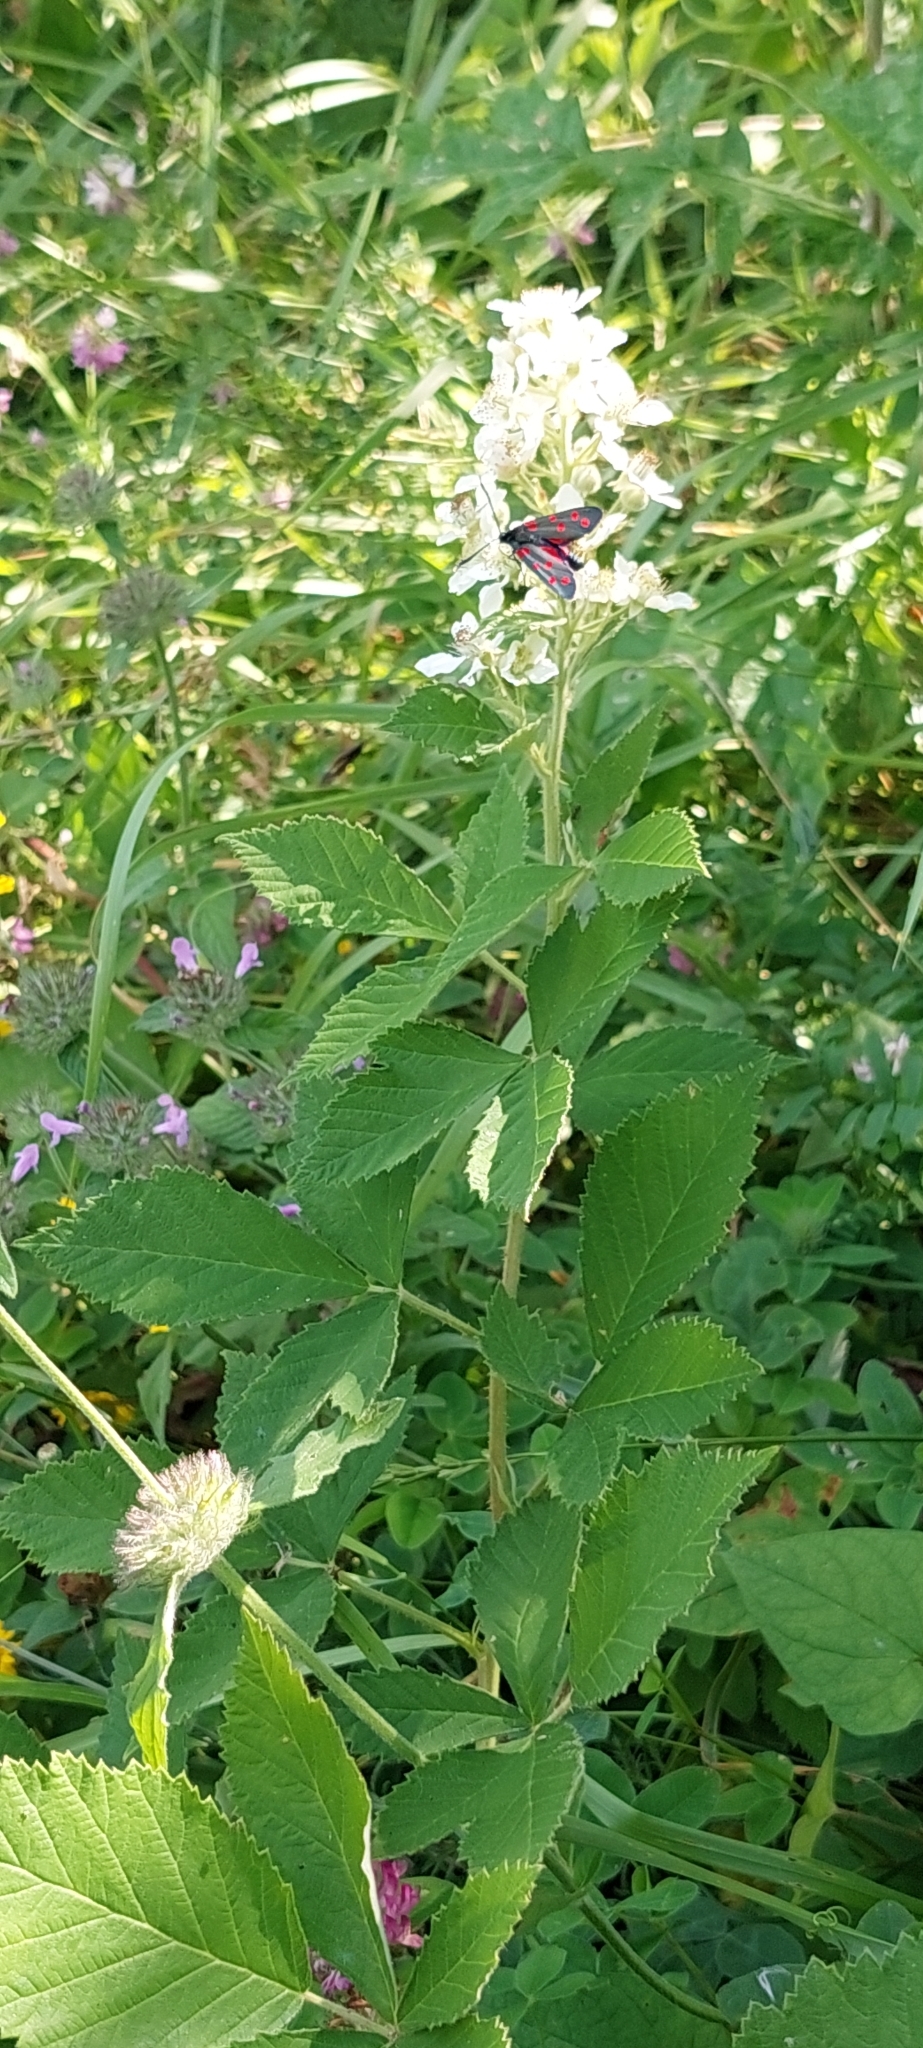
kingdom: Plantae
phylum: Tracheophyta
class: Magnoliopsida
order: Rosales
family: Rosaceae
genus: Rubus
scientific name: Rubus canescens
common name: Wooly blackberry
